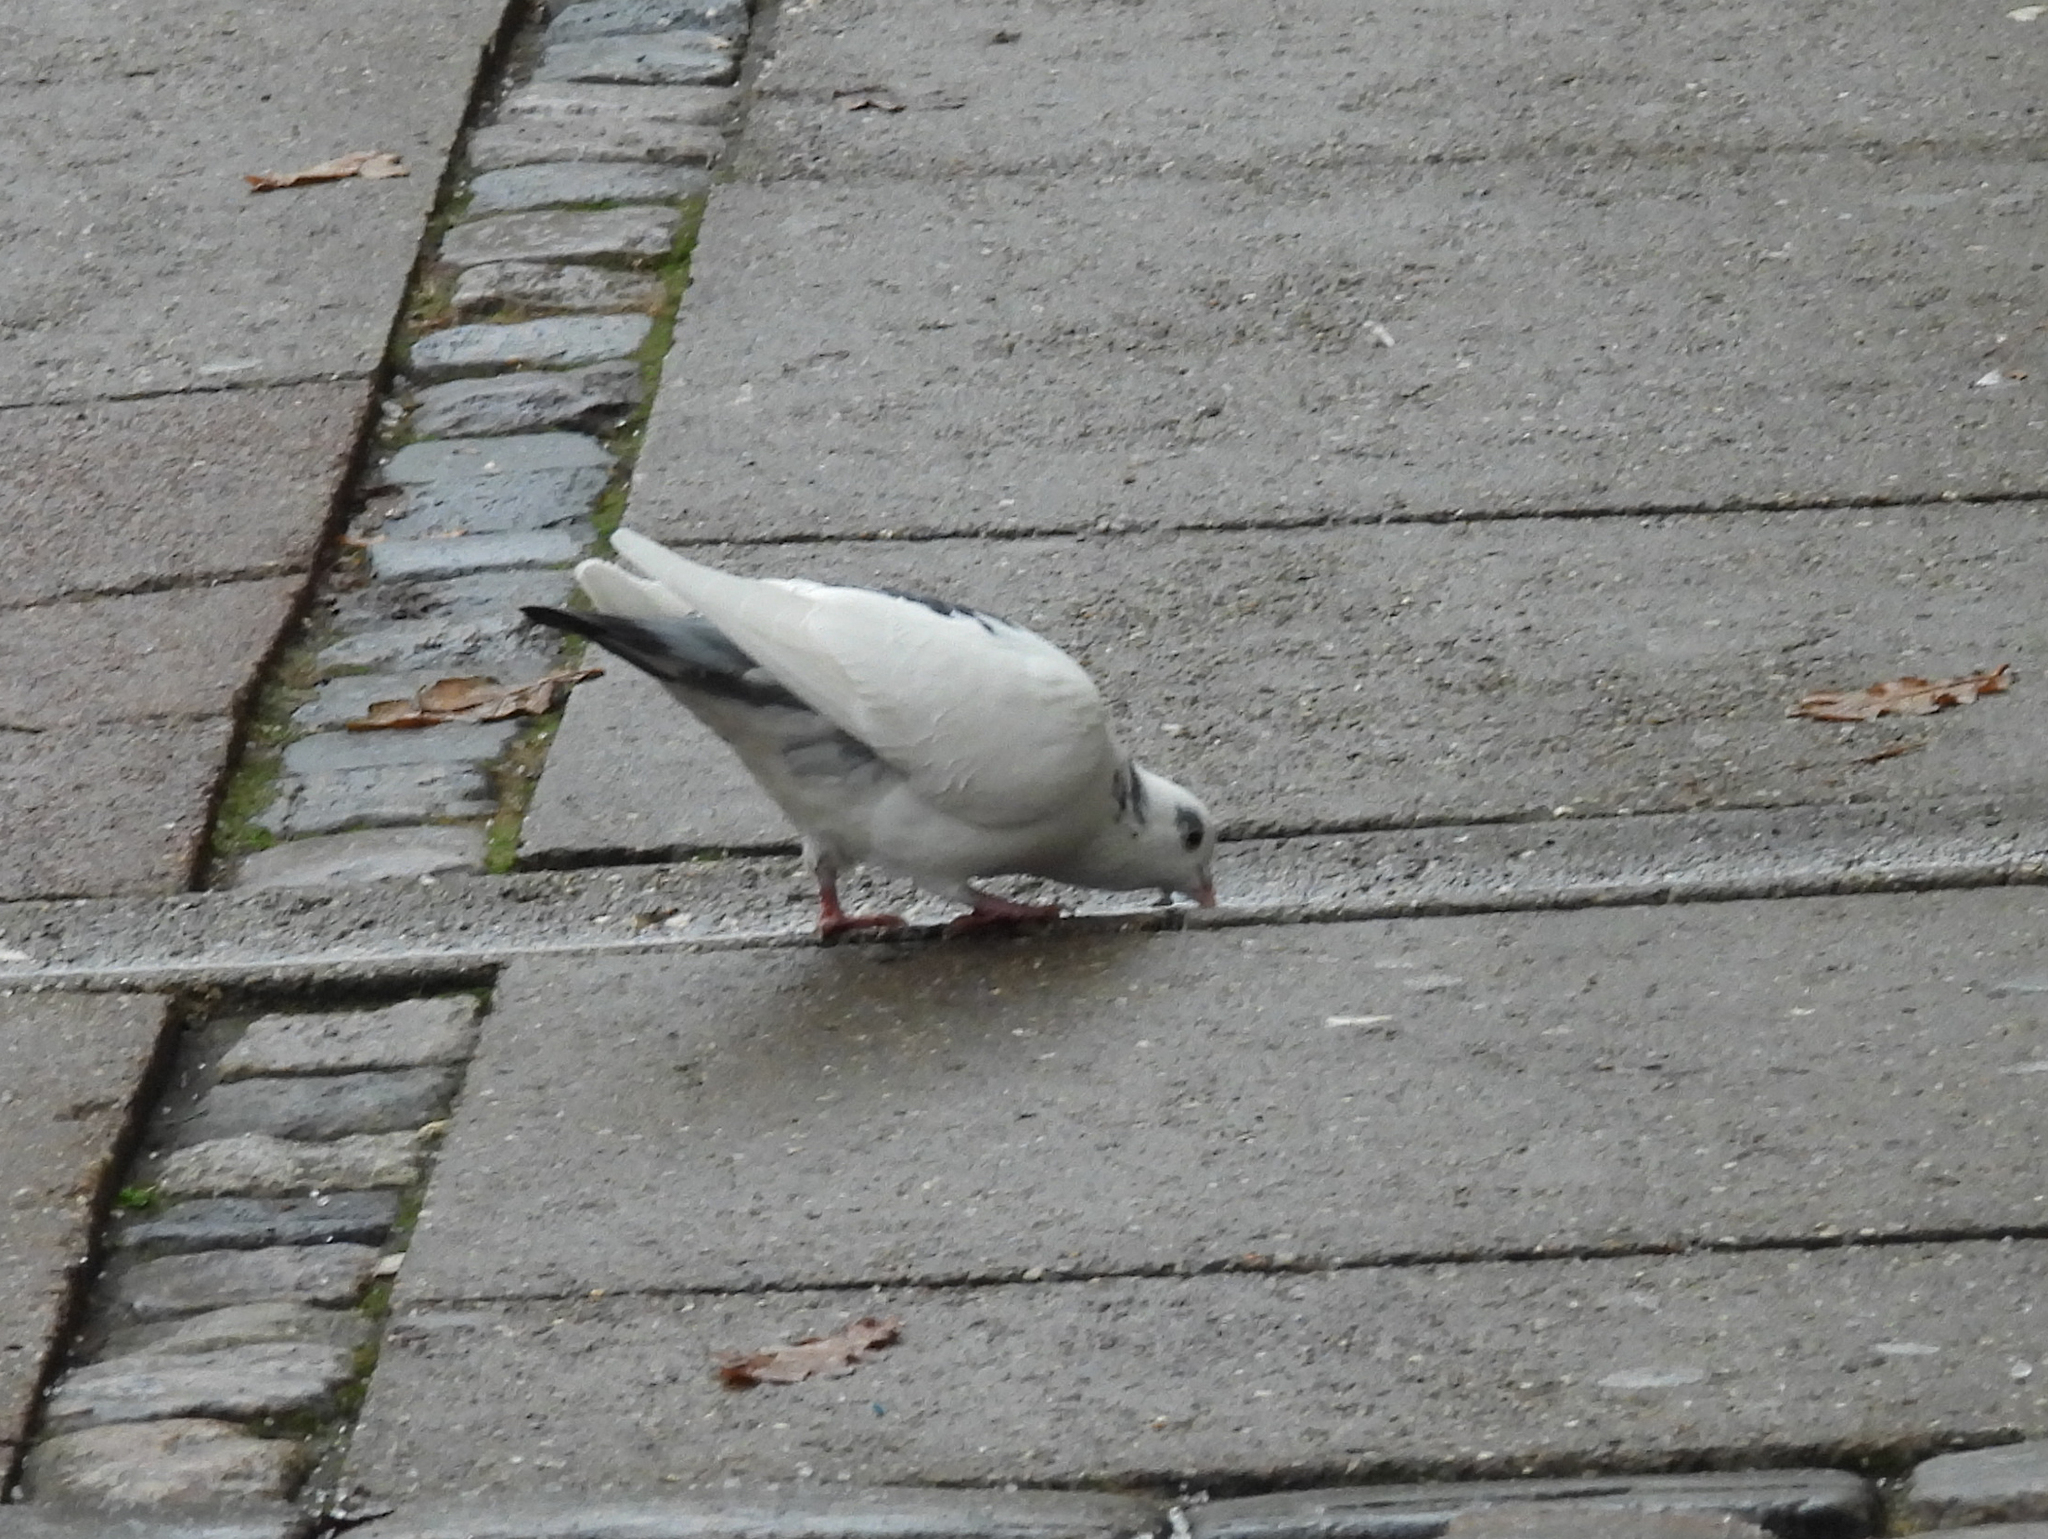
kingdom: Animalia
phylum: Chordata
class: Aves
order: Columbiformes
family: Columbidae
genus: Columba
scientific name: Columba livia
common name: Rock pigeon
